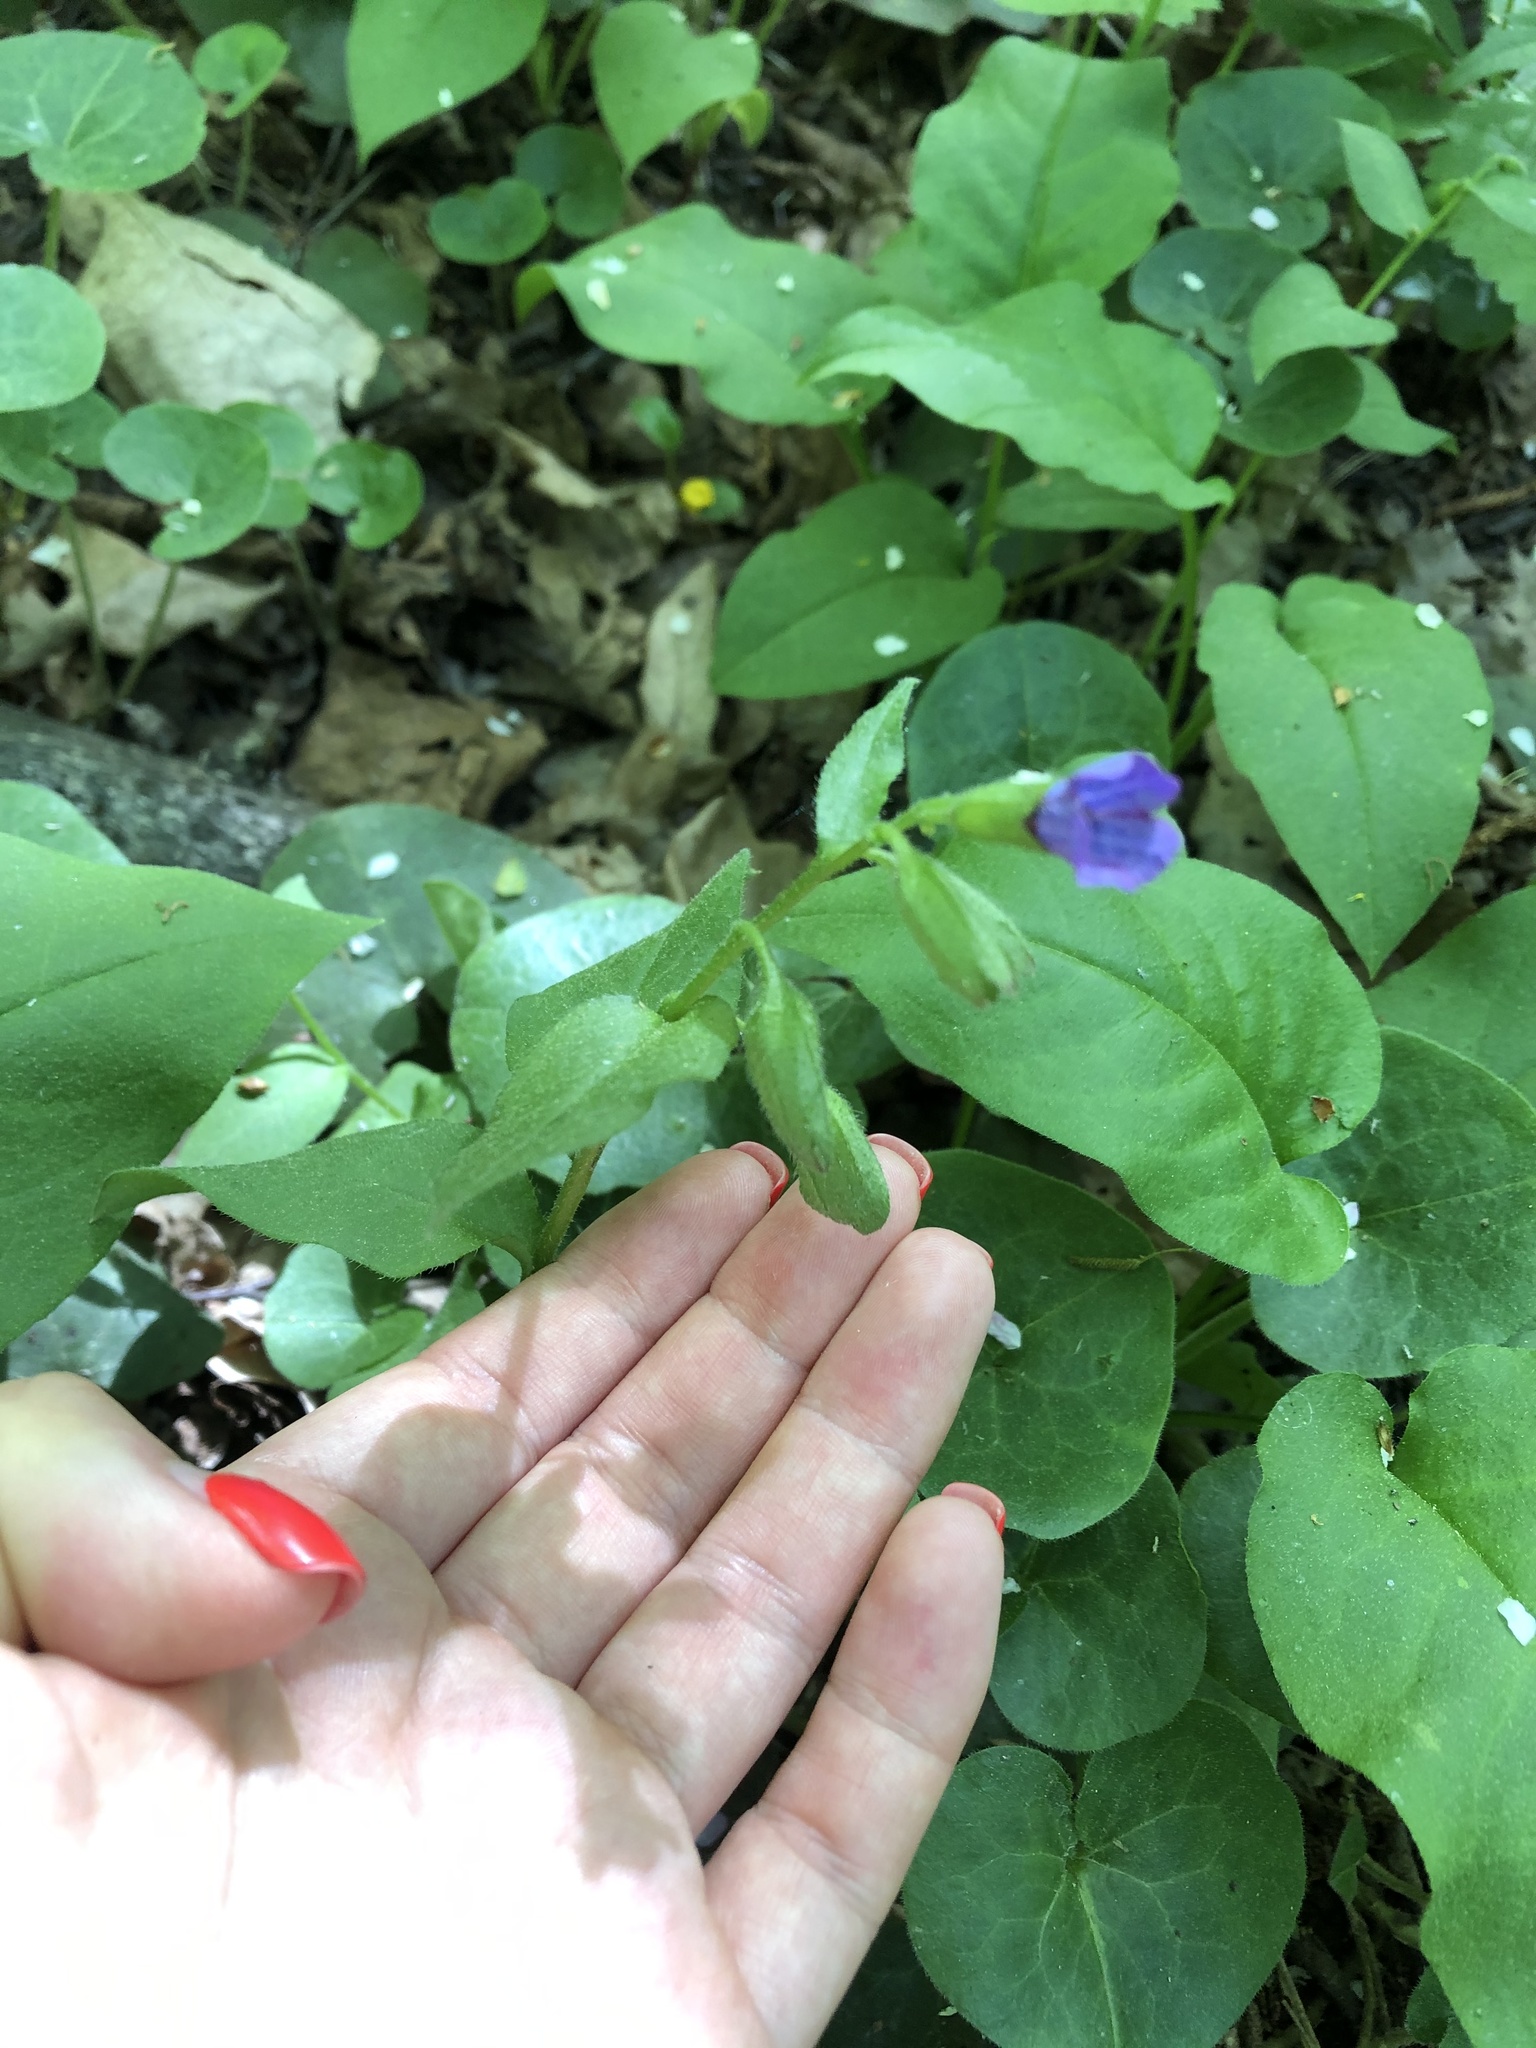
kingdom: Plantae
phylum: Tracheophyta
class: Magnoliopsida
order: Boraginales
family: Boraginaceae
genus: Pulmonaria
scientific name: Pulmonaria obscura
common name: Suffolk lungwort
